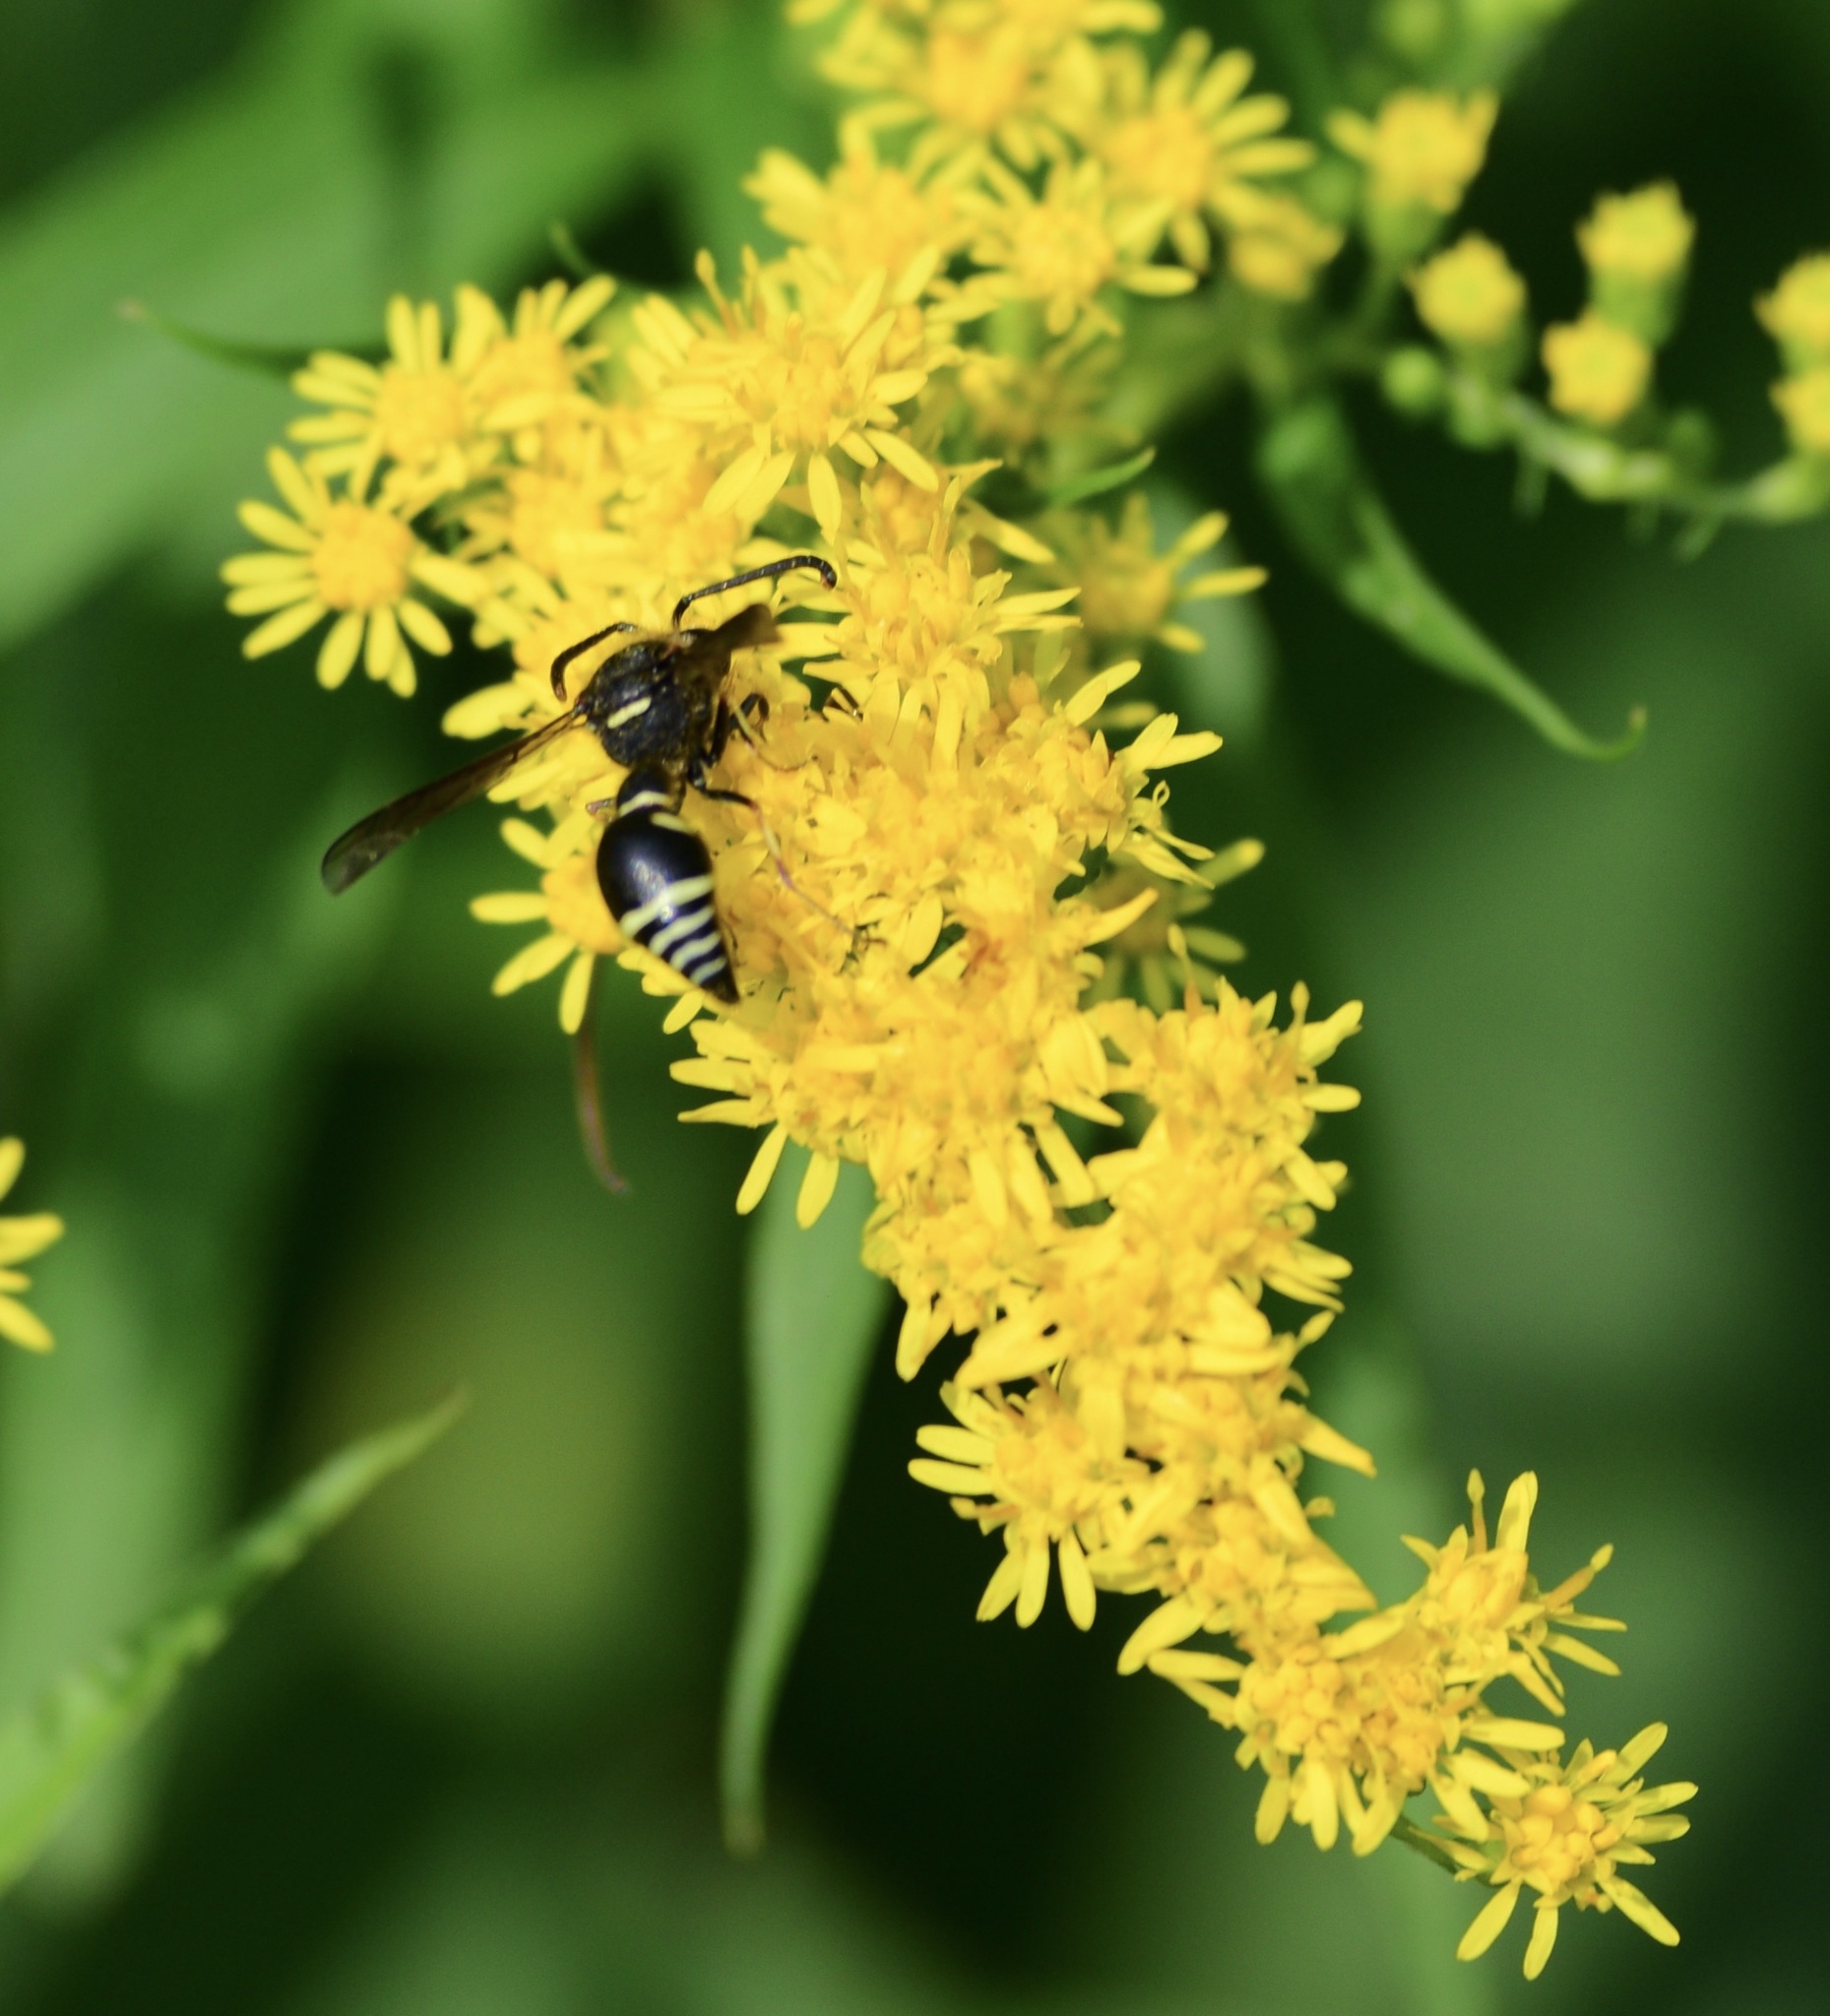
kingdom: Animalia
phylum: Arthropoda
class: Insecta
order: Hymenoptera
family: Vespidae
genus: Eumenes
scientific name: Eumenes
